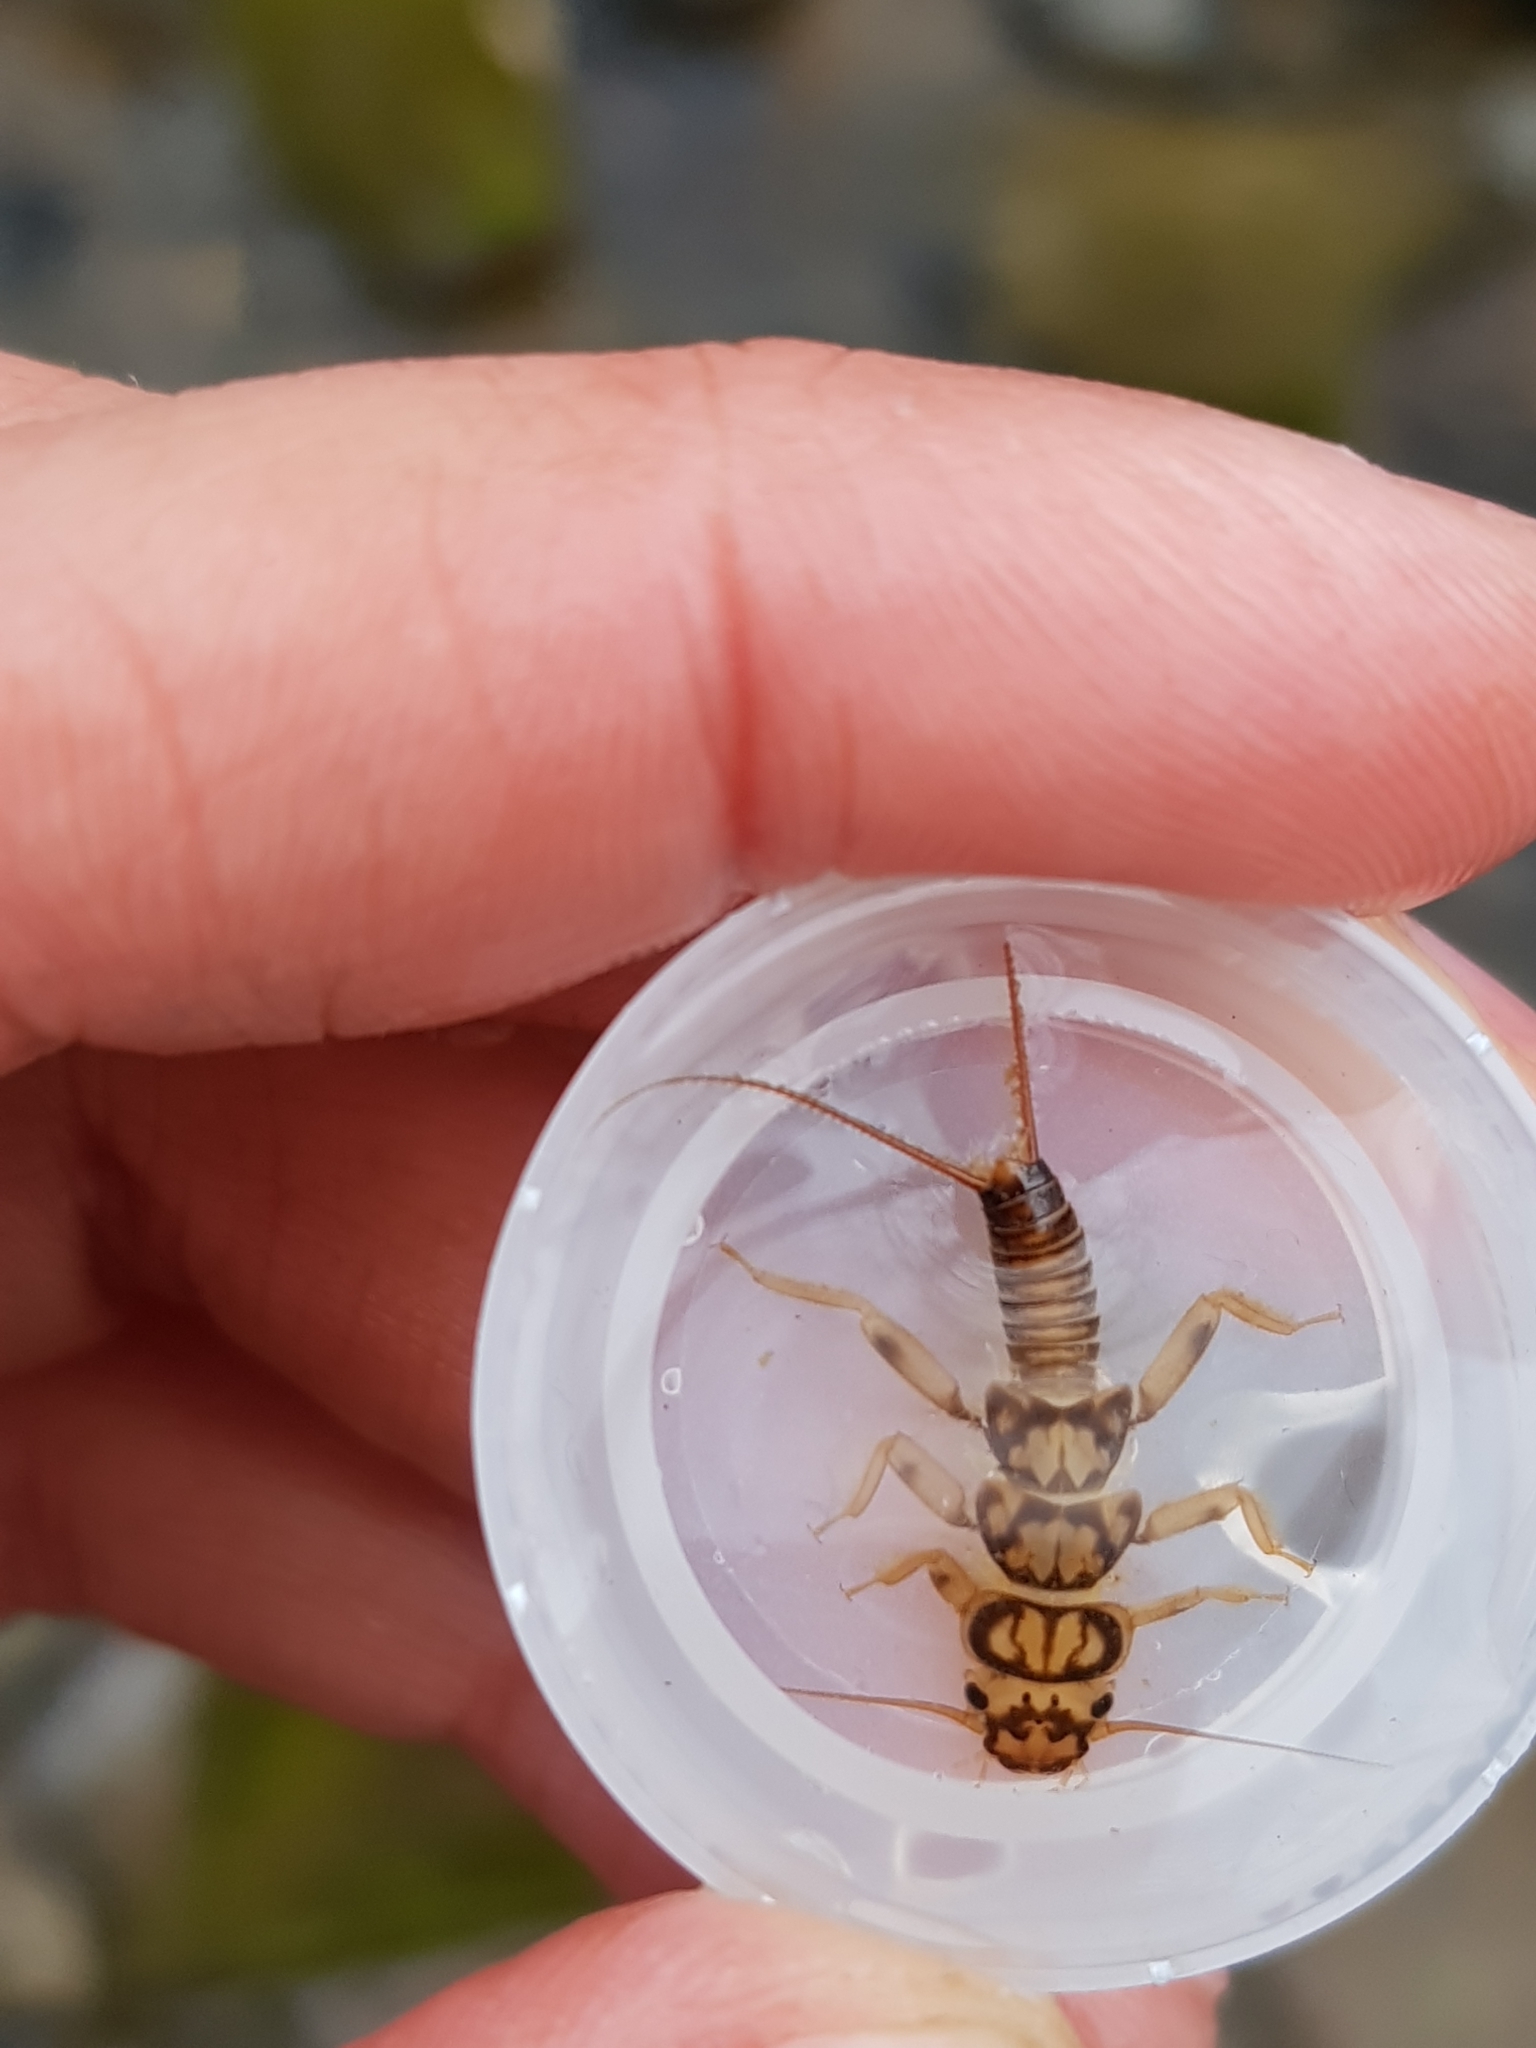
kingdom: Animalia
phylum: Arthropoda
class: Insecta
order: Plecoptera
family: Perlidae
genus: Eccoptura
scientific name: Eccoptura xanthenes
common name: Yellow stone
